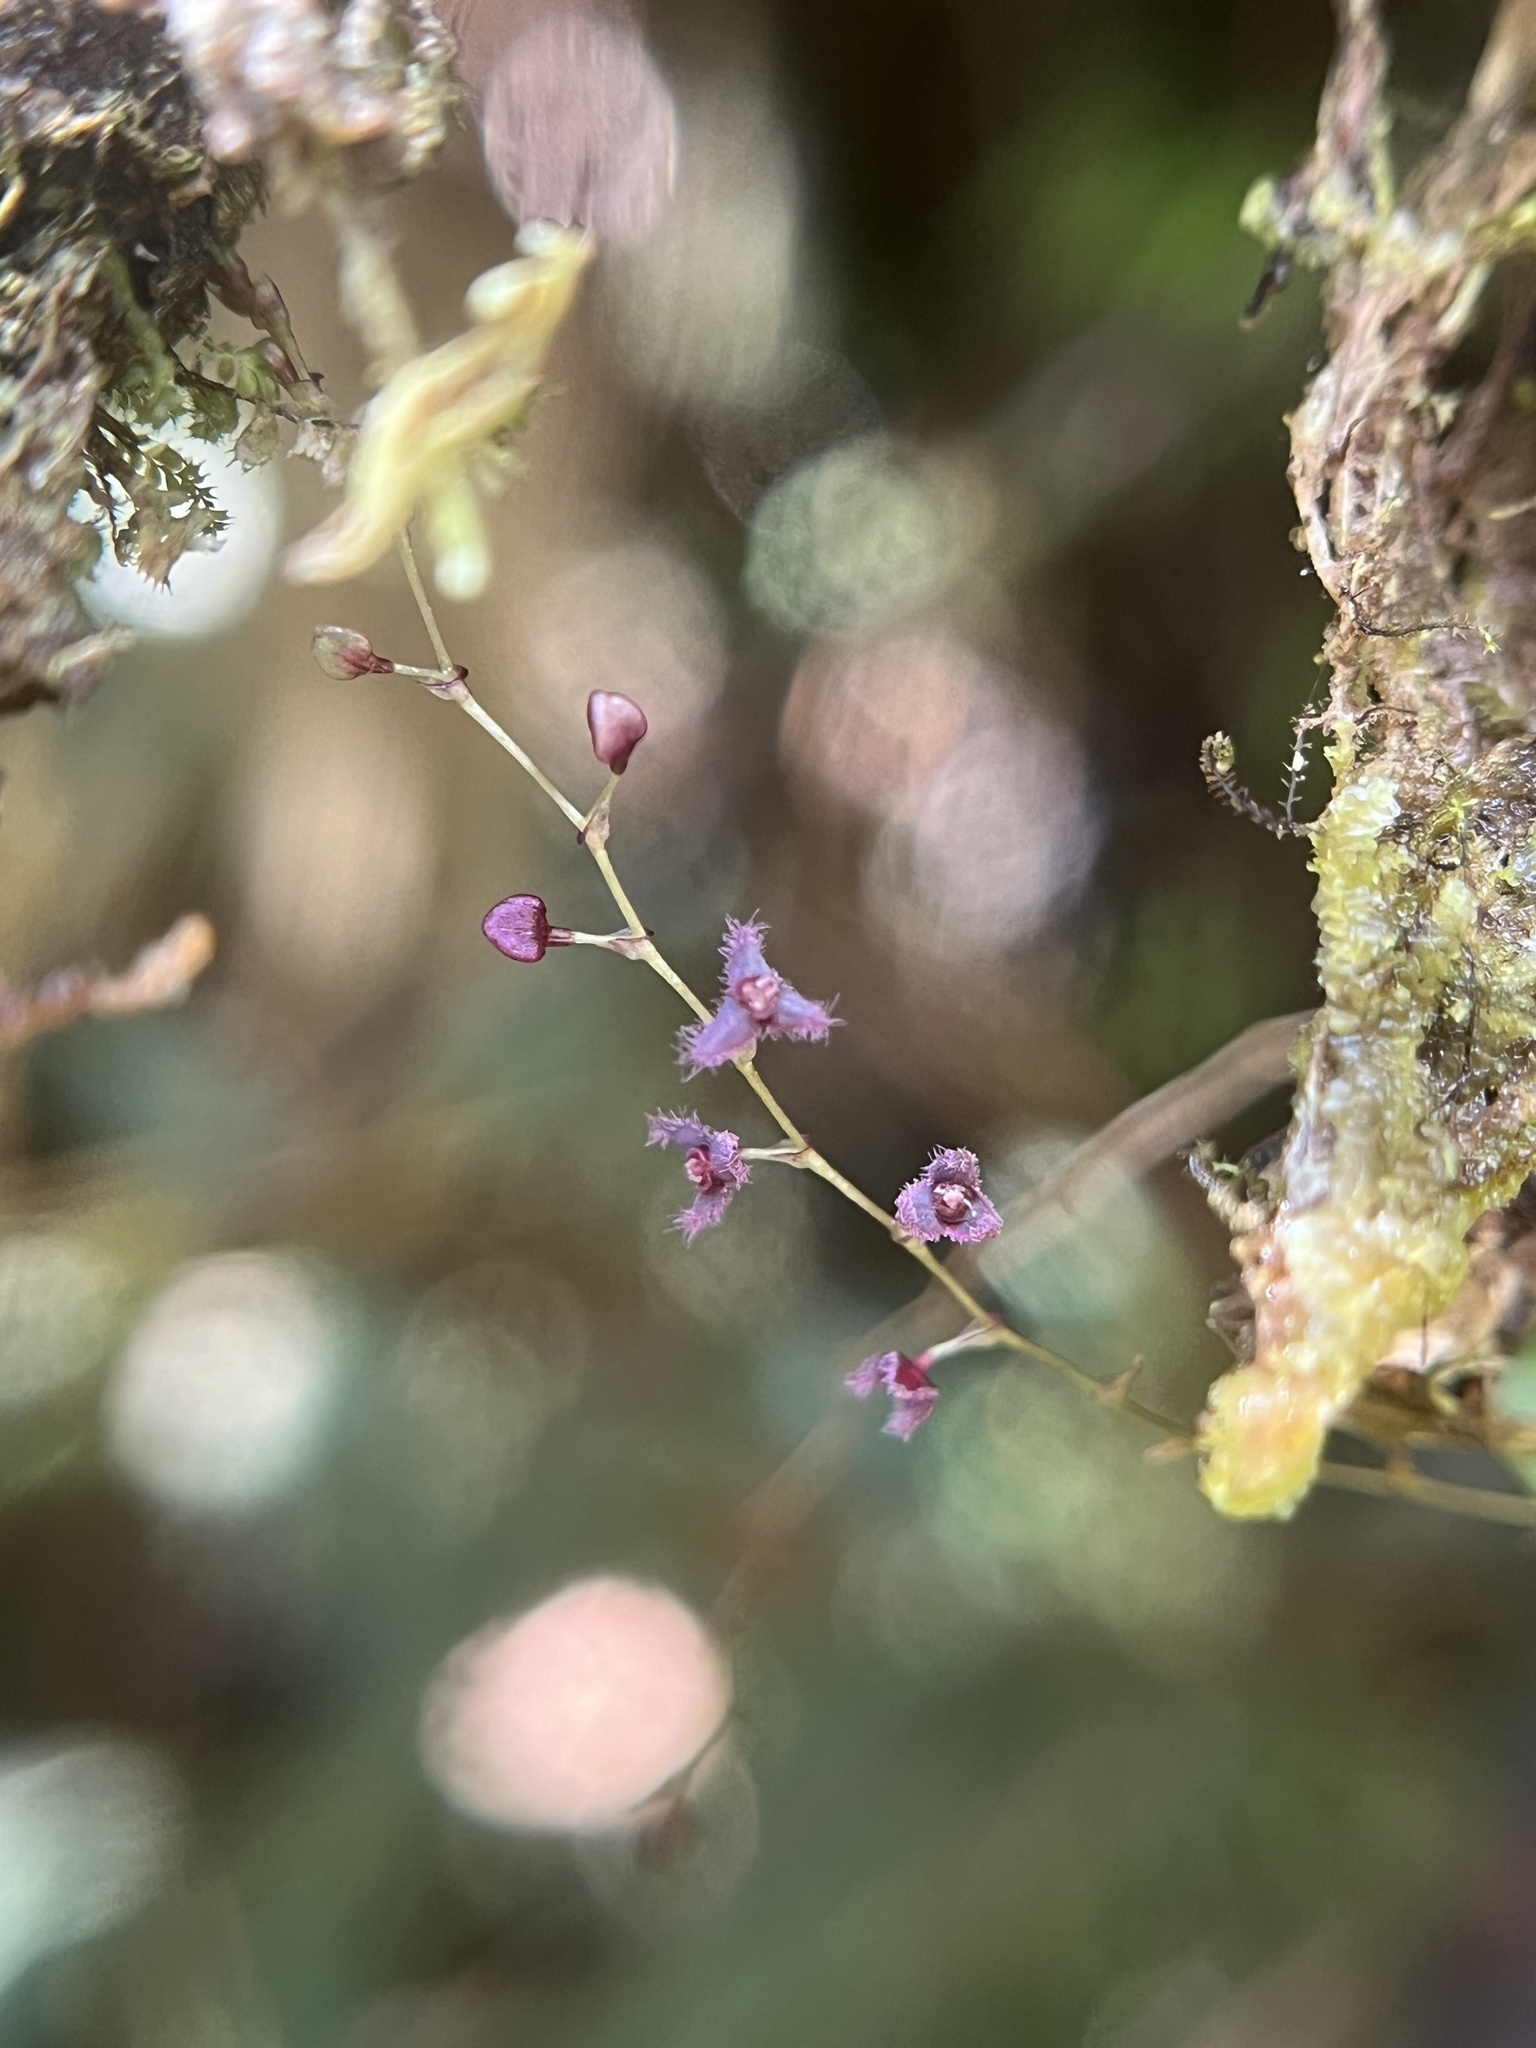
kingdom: Plantae
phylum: Tracheophyta
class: Liliopsida
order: Asparagales
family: Orchidaceae
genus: Stelis
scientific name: Stelis concinna
